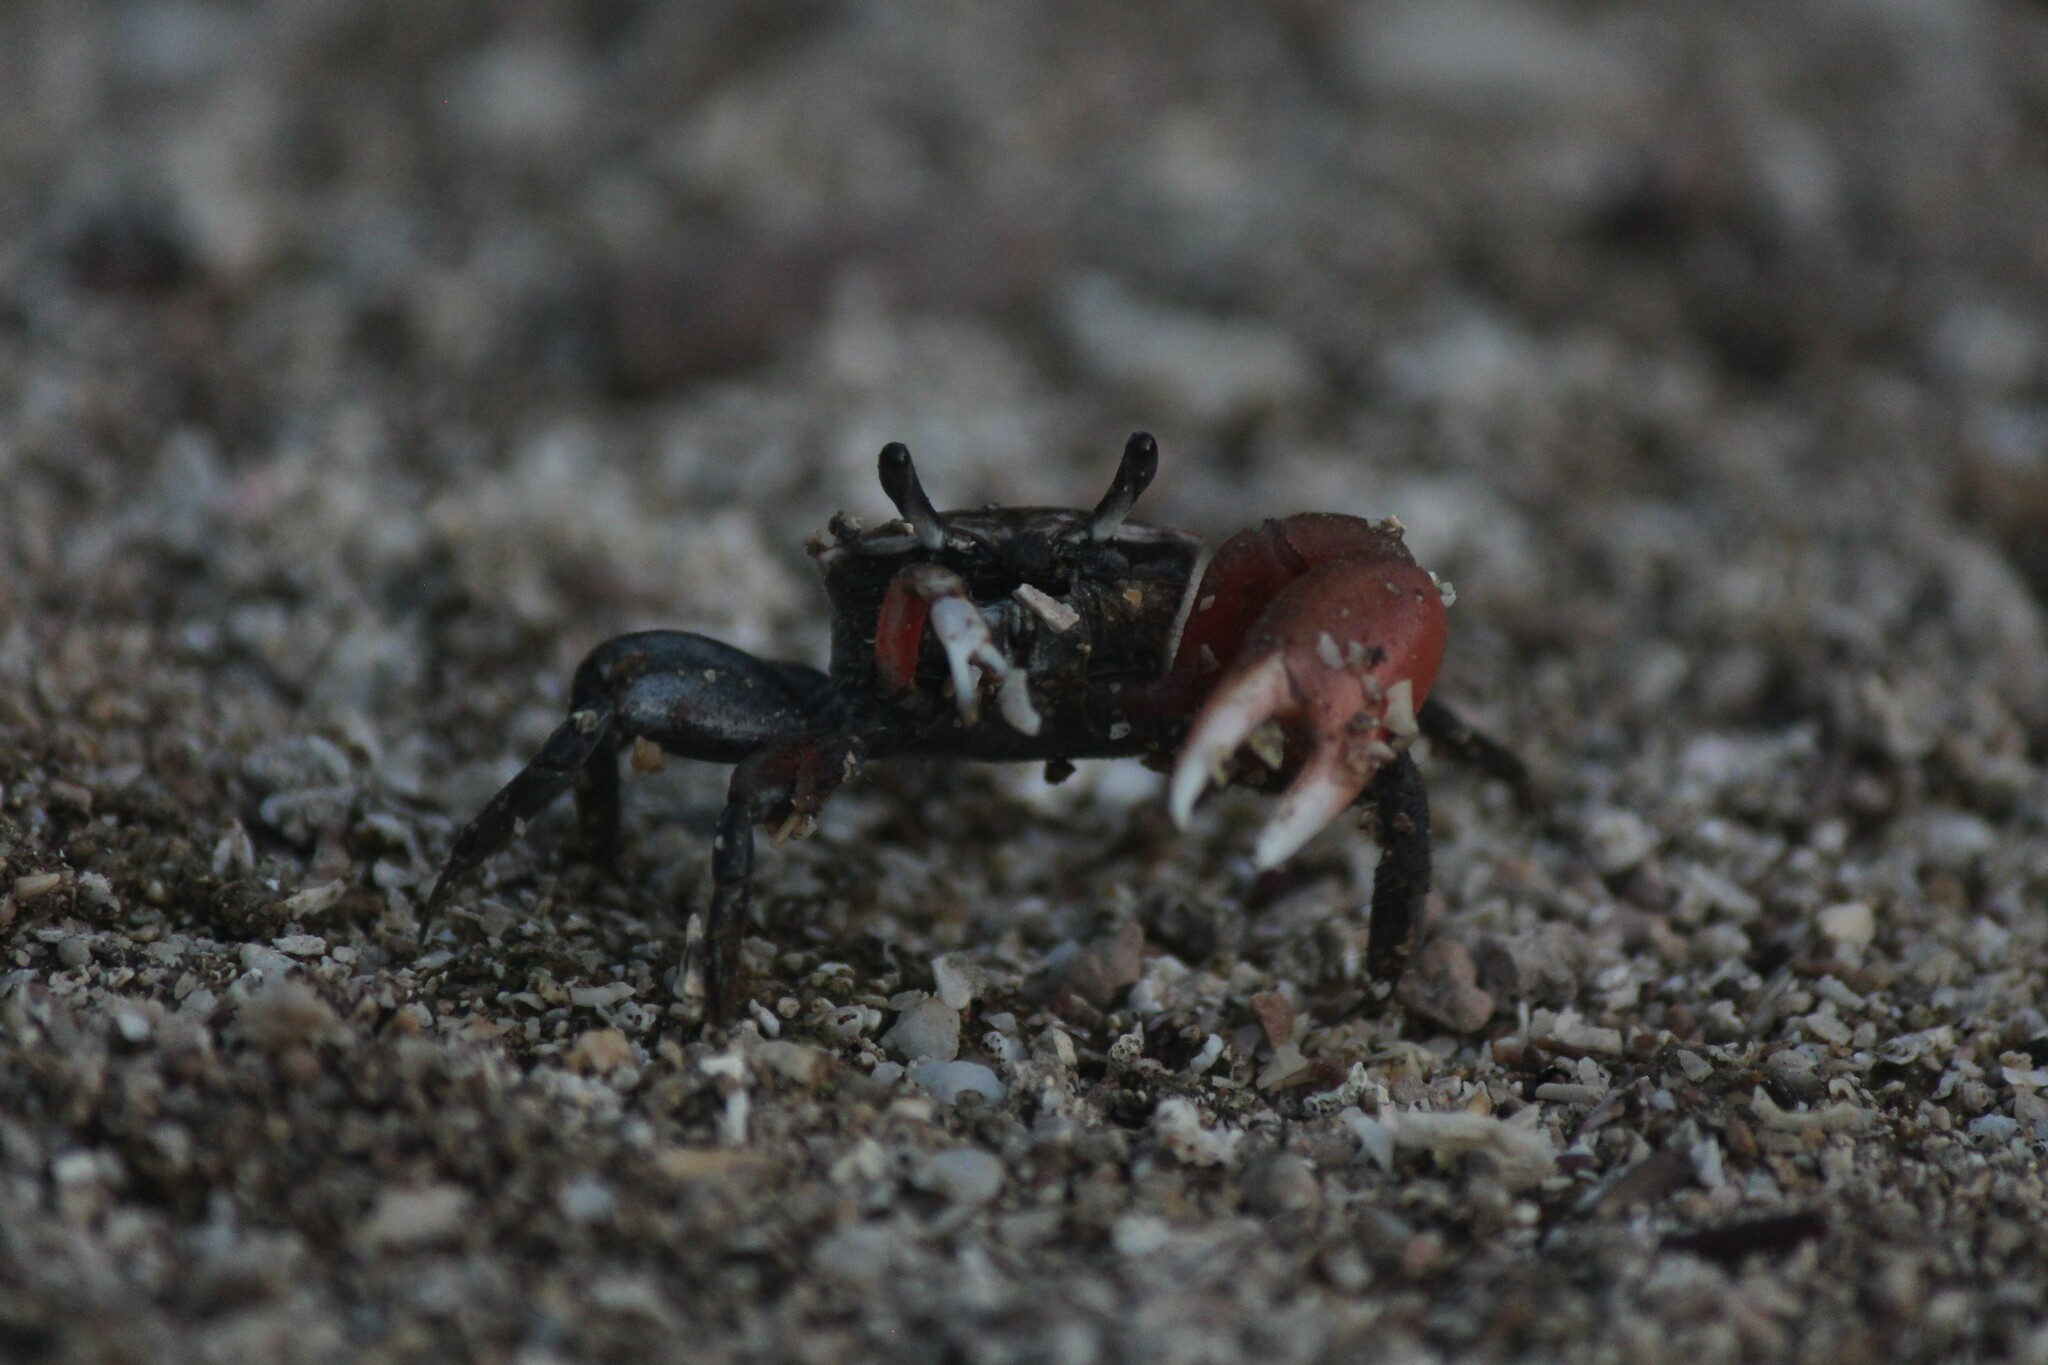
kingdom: Animalia
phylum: Arthropoda
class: Malacostraca
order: Decapoda
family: Ocypodidae
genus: Minuca
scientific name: Minuca galapagensis
